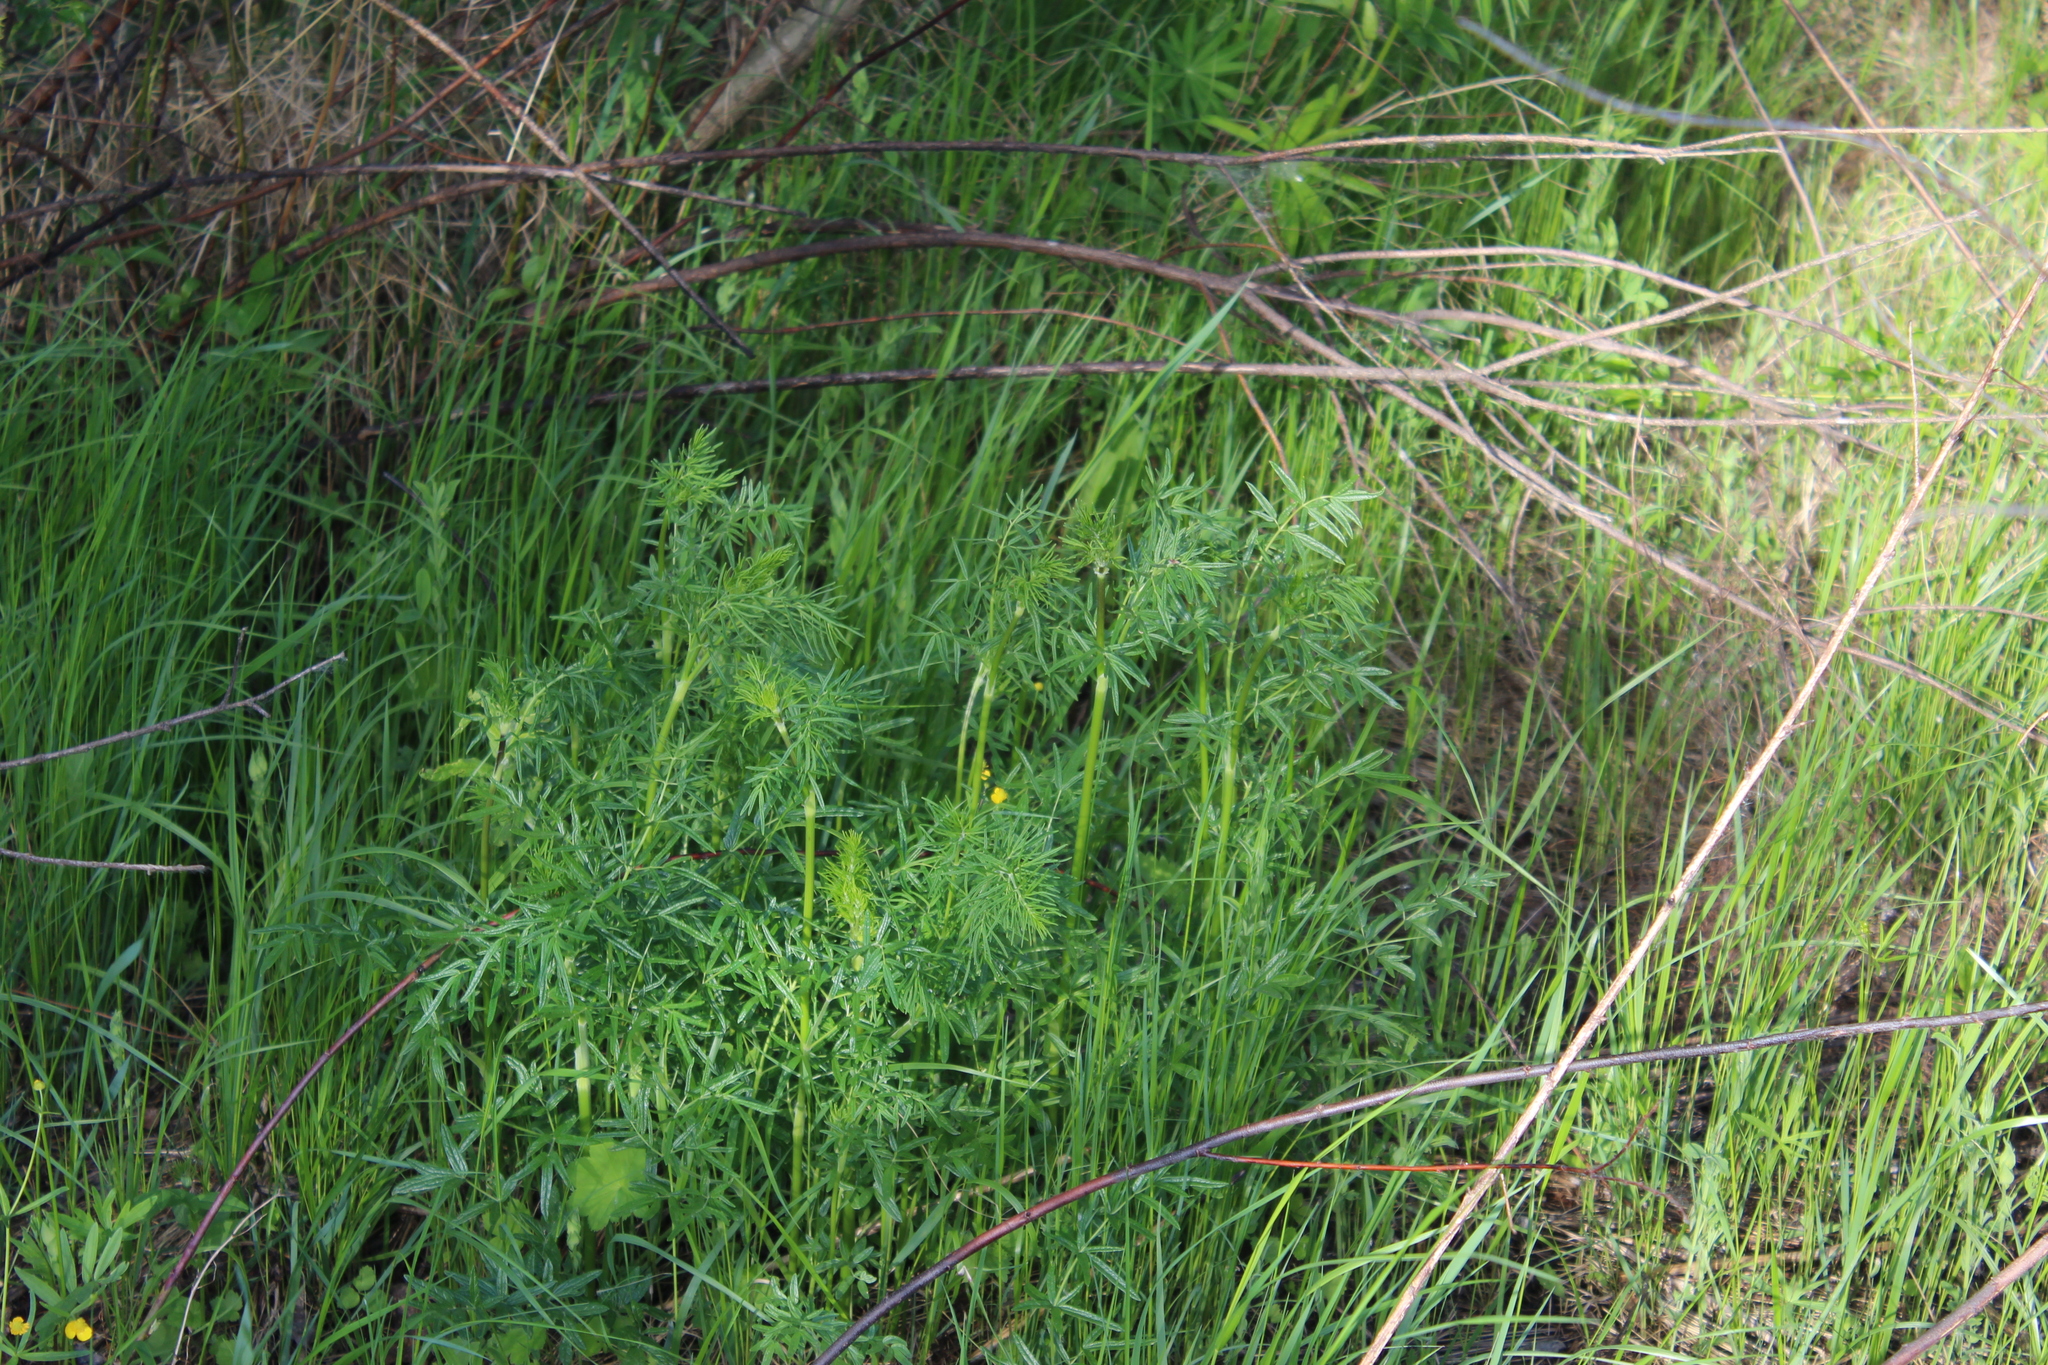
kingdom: Plantae
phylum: Tracheophyta
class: Magnoliopsida
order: Ranunculales
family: Ranunculaceae
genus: Thalictrum
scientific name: Thalictrum lucidum
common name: Shining meadow-rue
